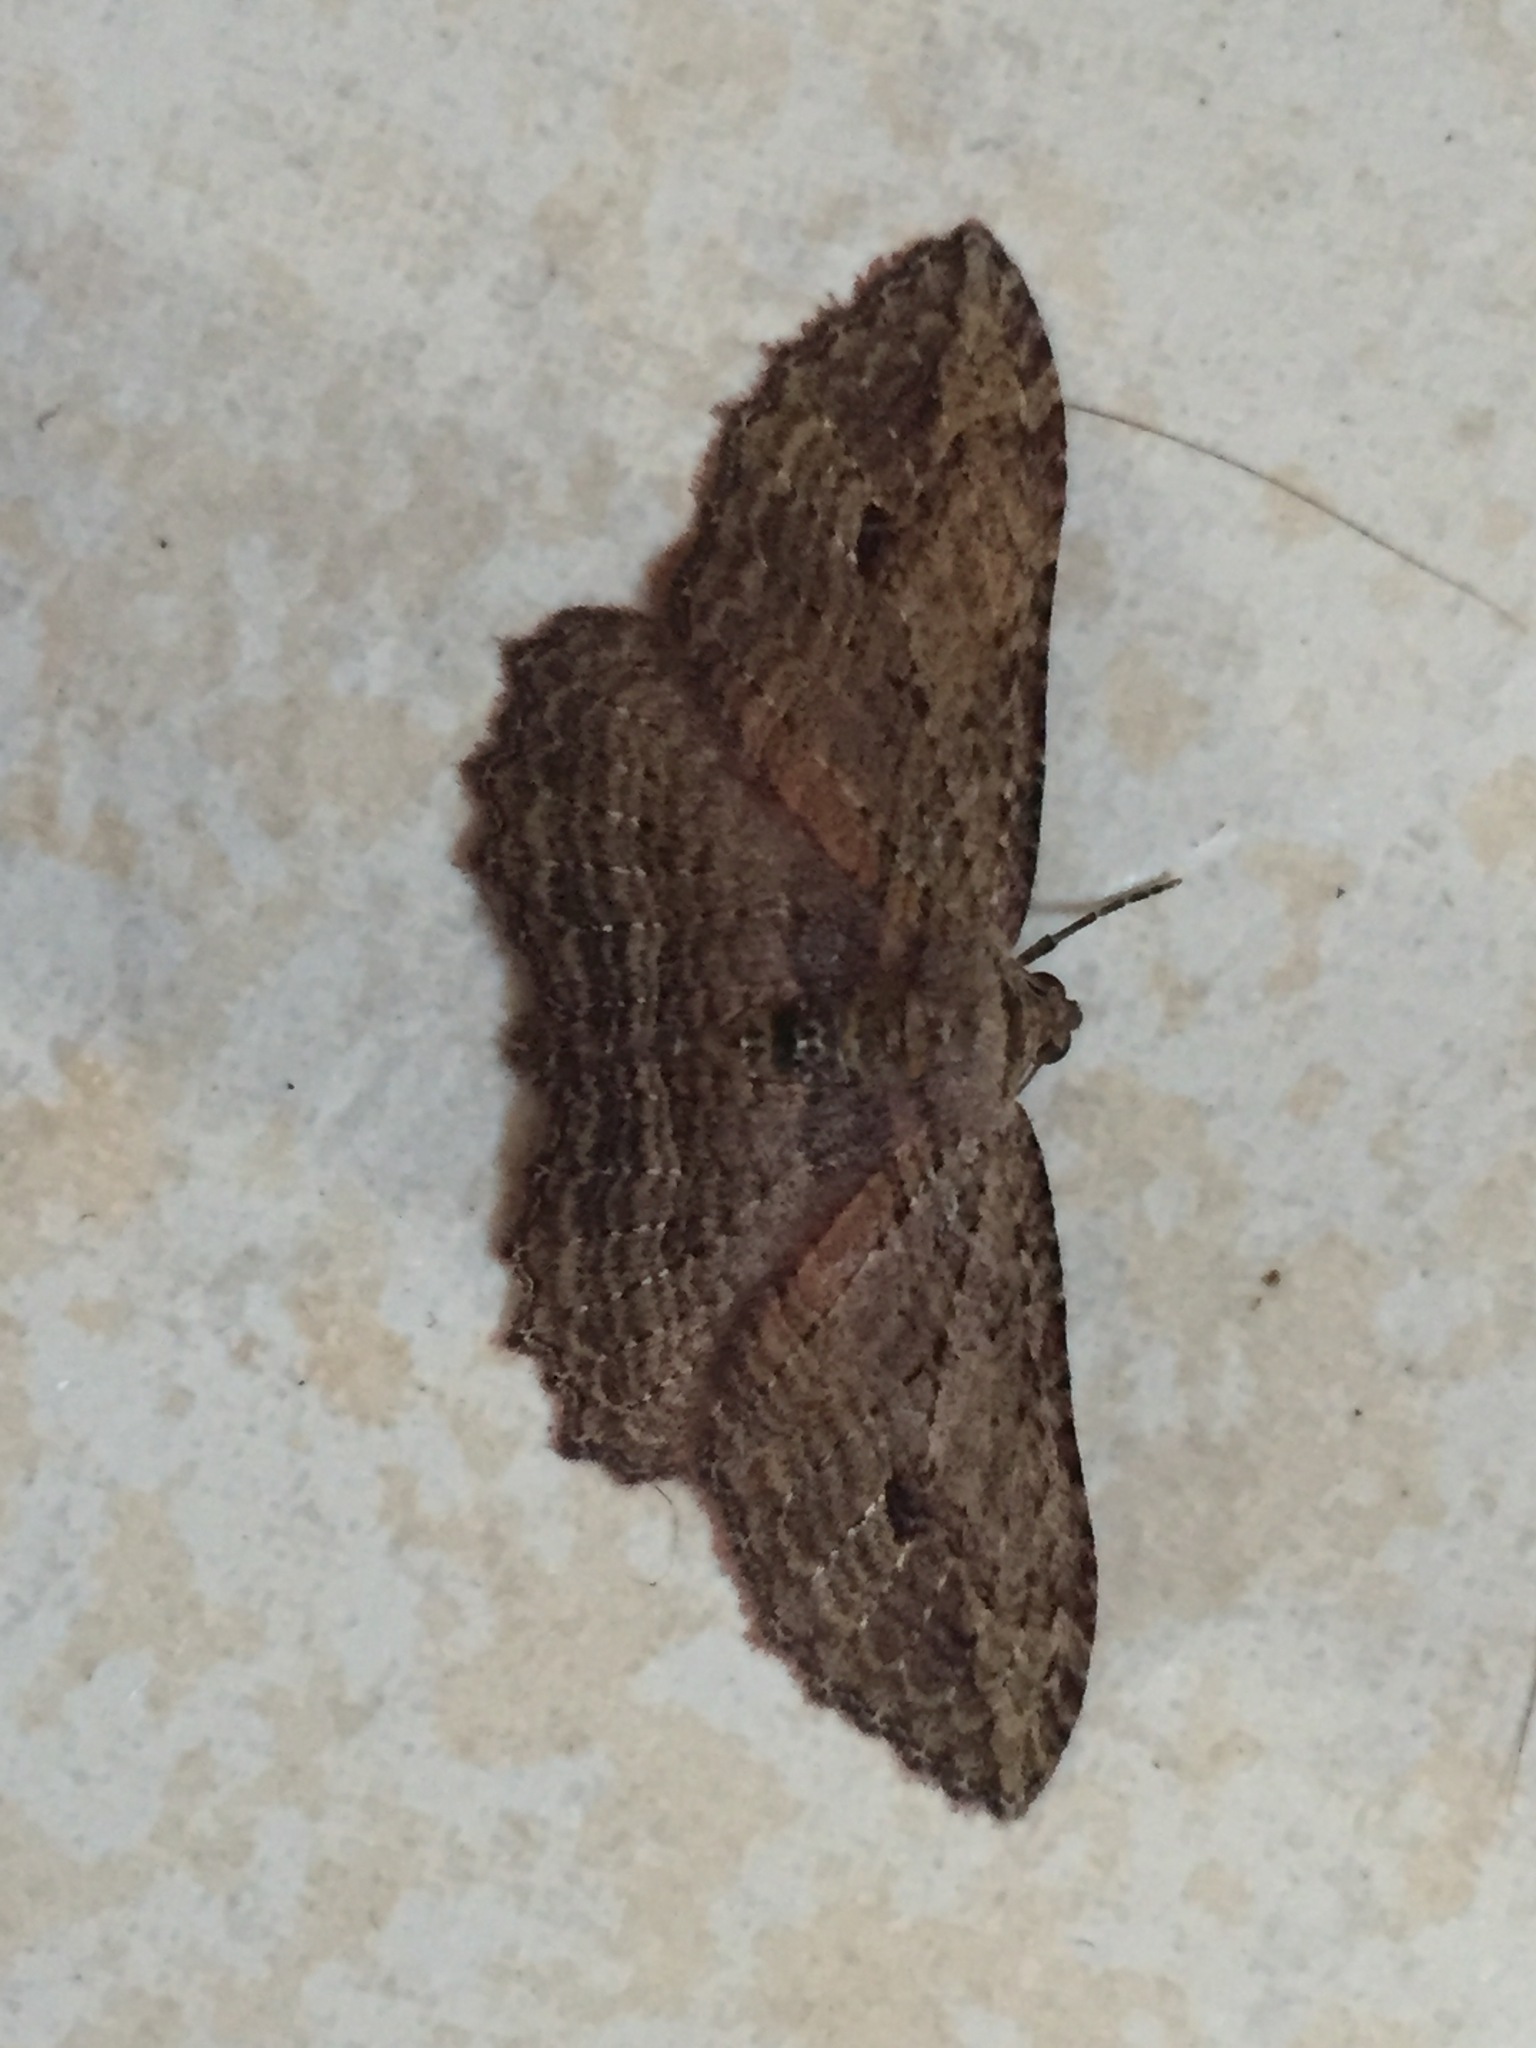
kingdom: Animalia
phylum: Arthropoda
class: Insecta
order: Lepidoptera
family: Geometridae
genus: Austrocidaria
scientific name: Austrocidaria bipartita
